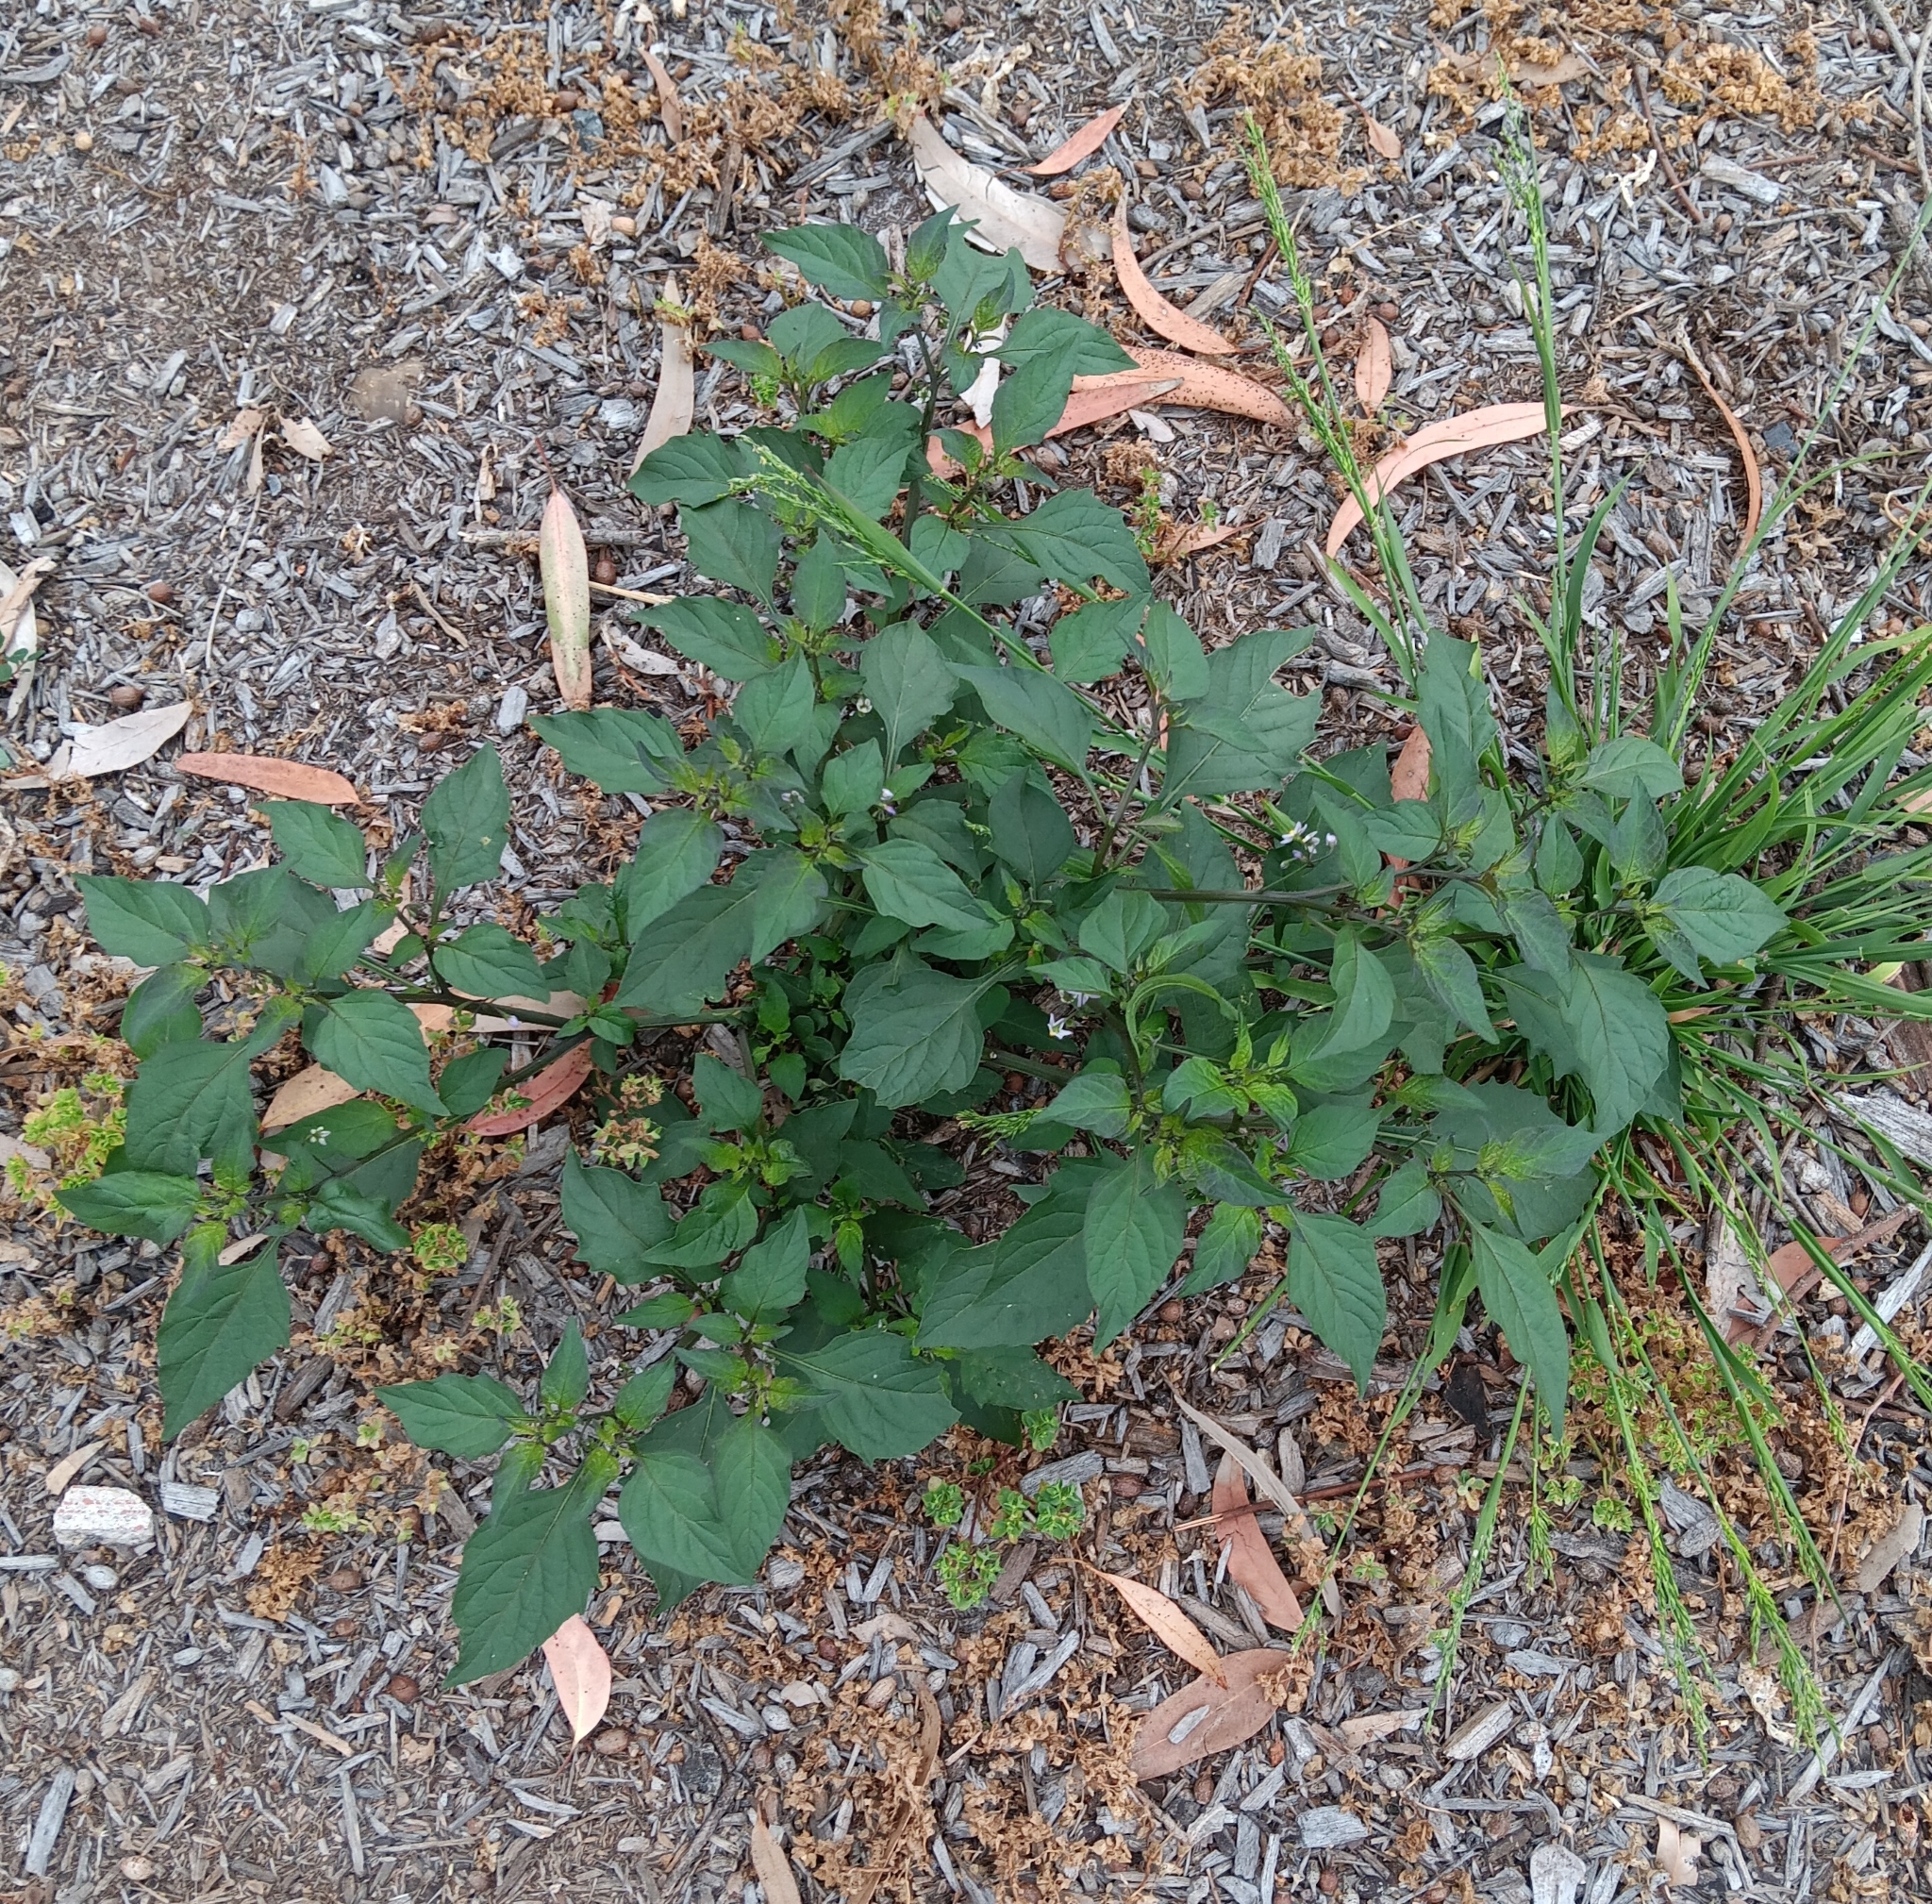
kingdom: Plantae
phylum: Tracheophyta
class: Magnoliopsida
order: Solanales
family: Solanaceae
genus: Solanum
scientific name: Solanum americanum
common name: American black nightshade
